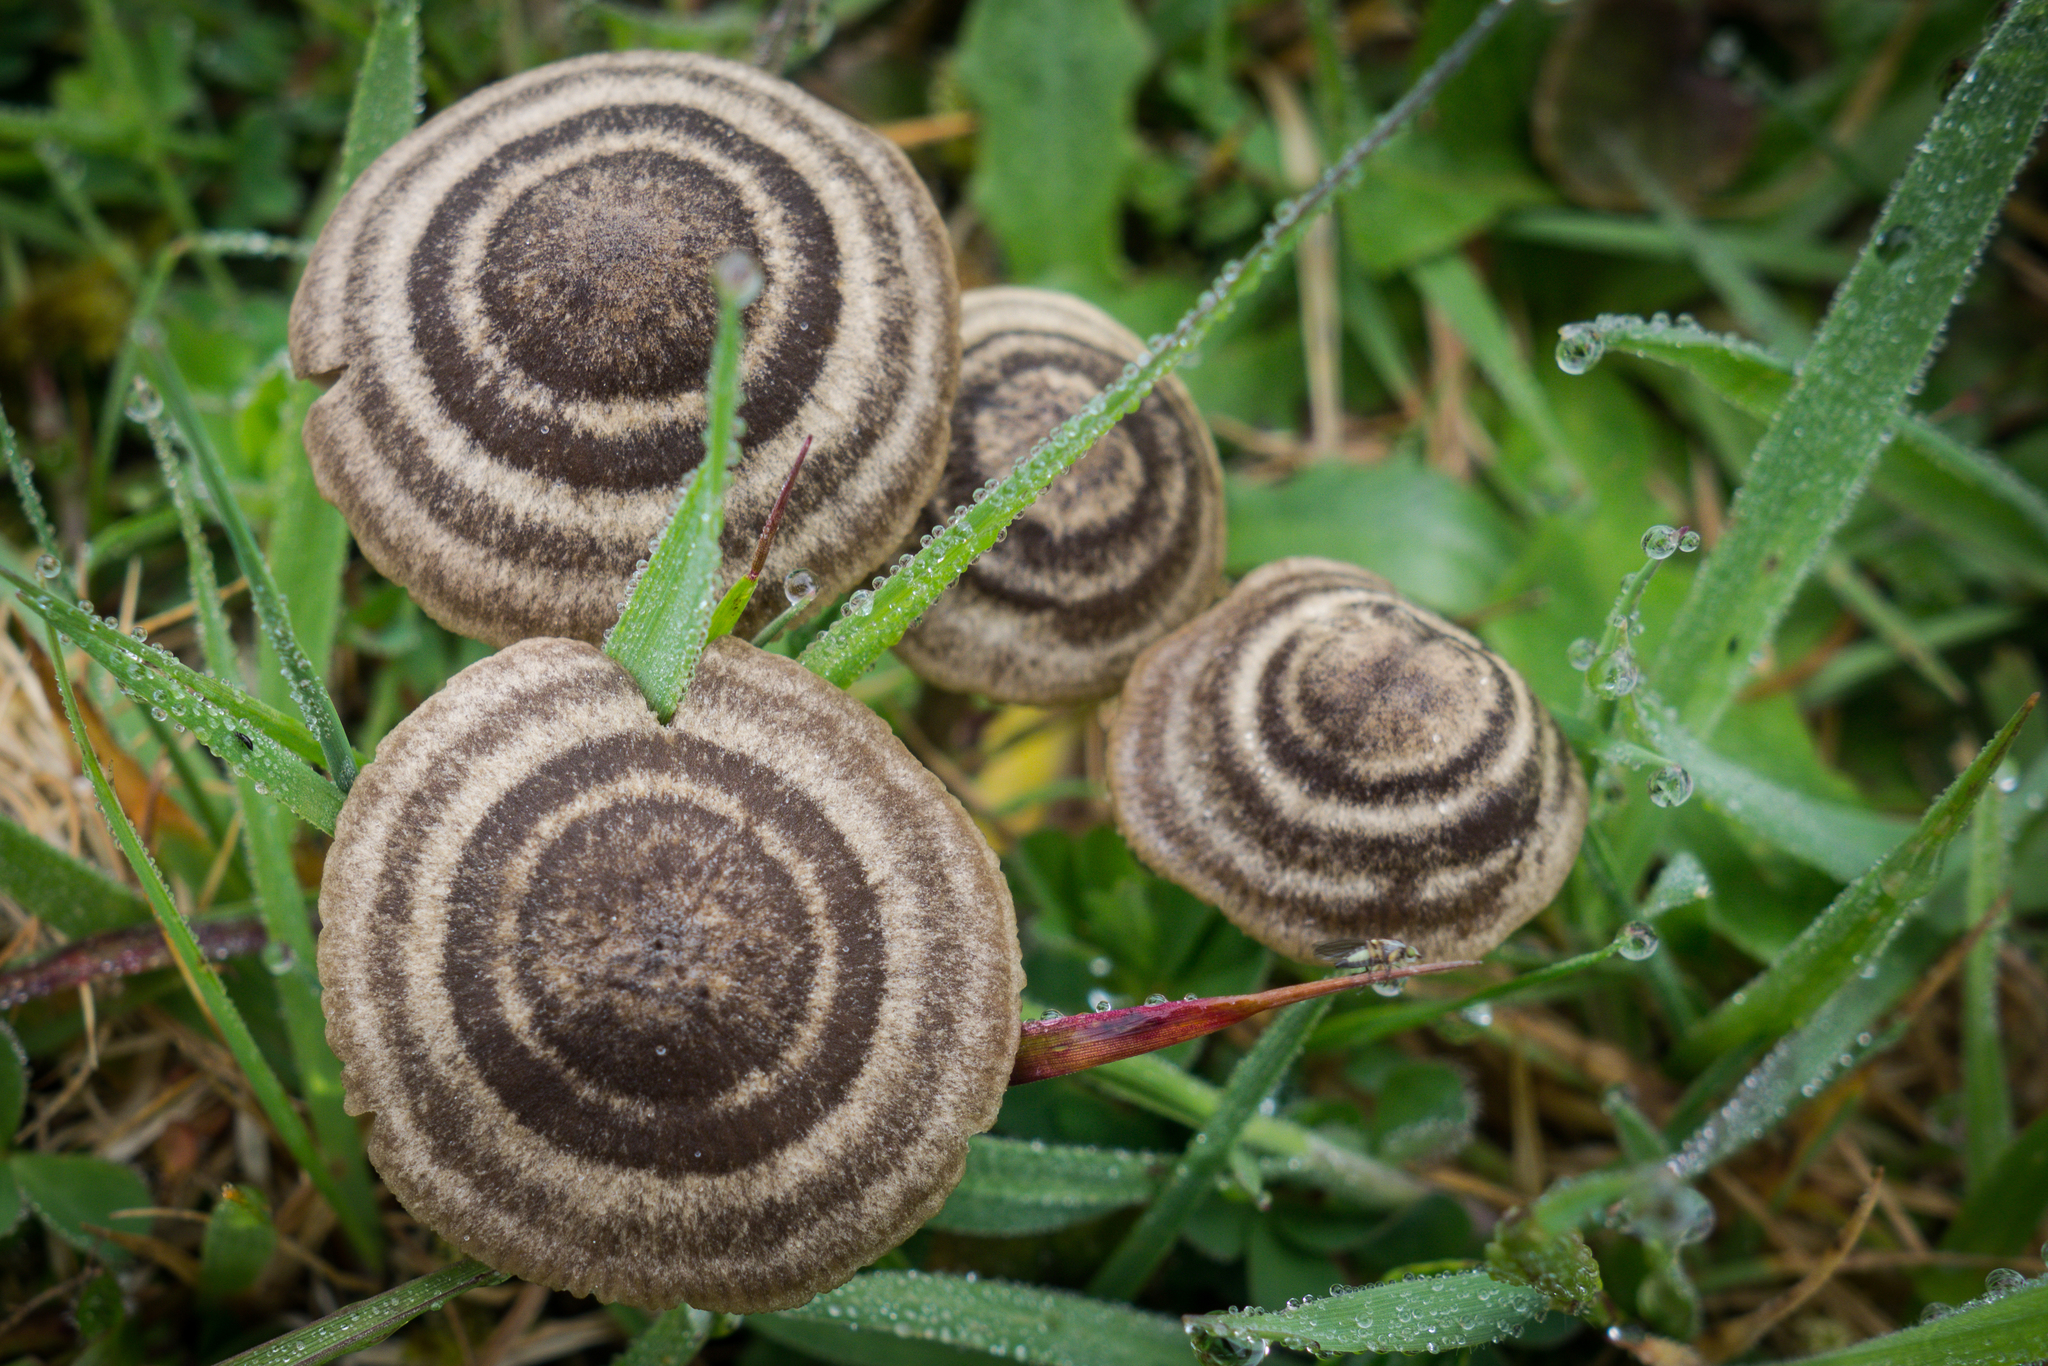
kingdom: Fungi
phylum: Basidiomycota
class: Agaricomycetes
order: Agaricales
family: Entolomataceae
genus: Entoloma
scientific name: Entoloma perzonatum
